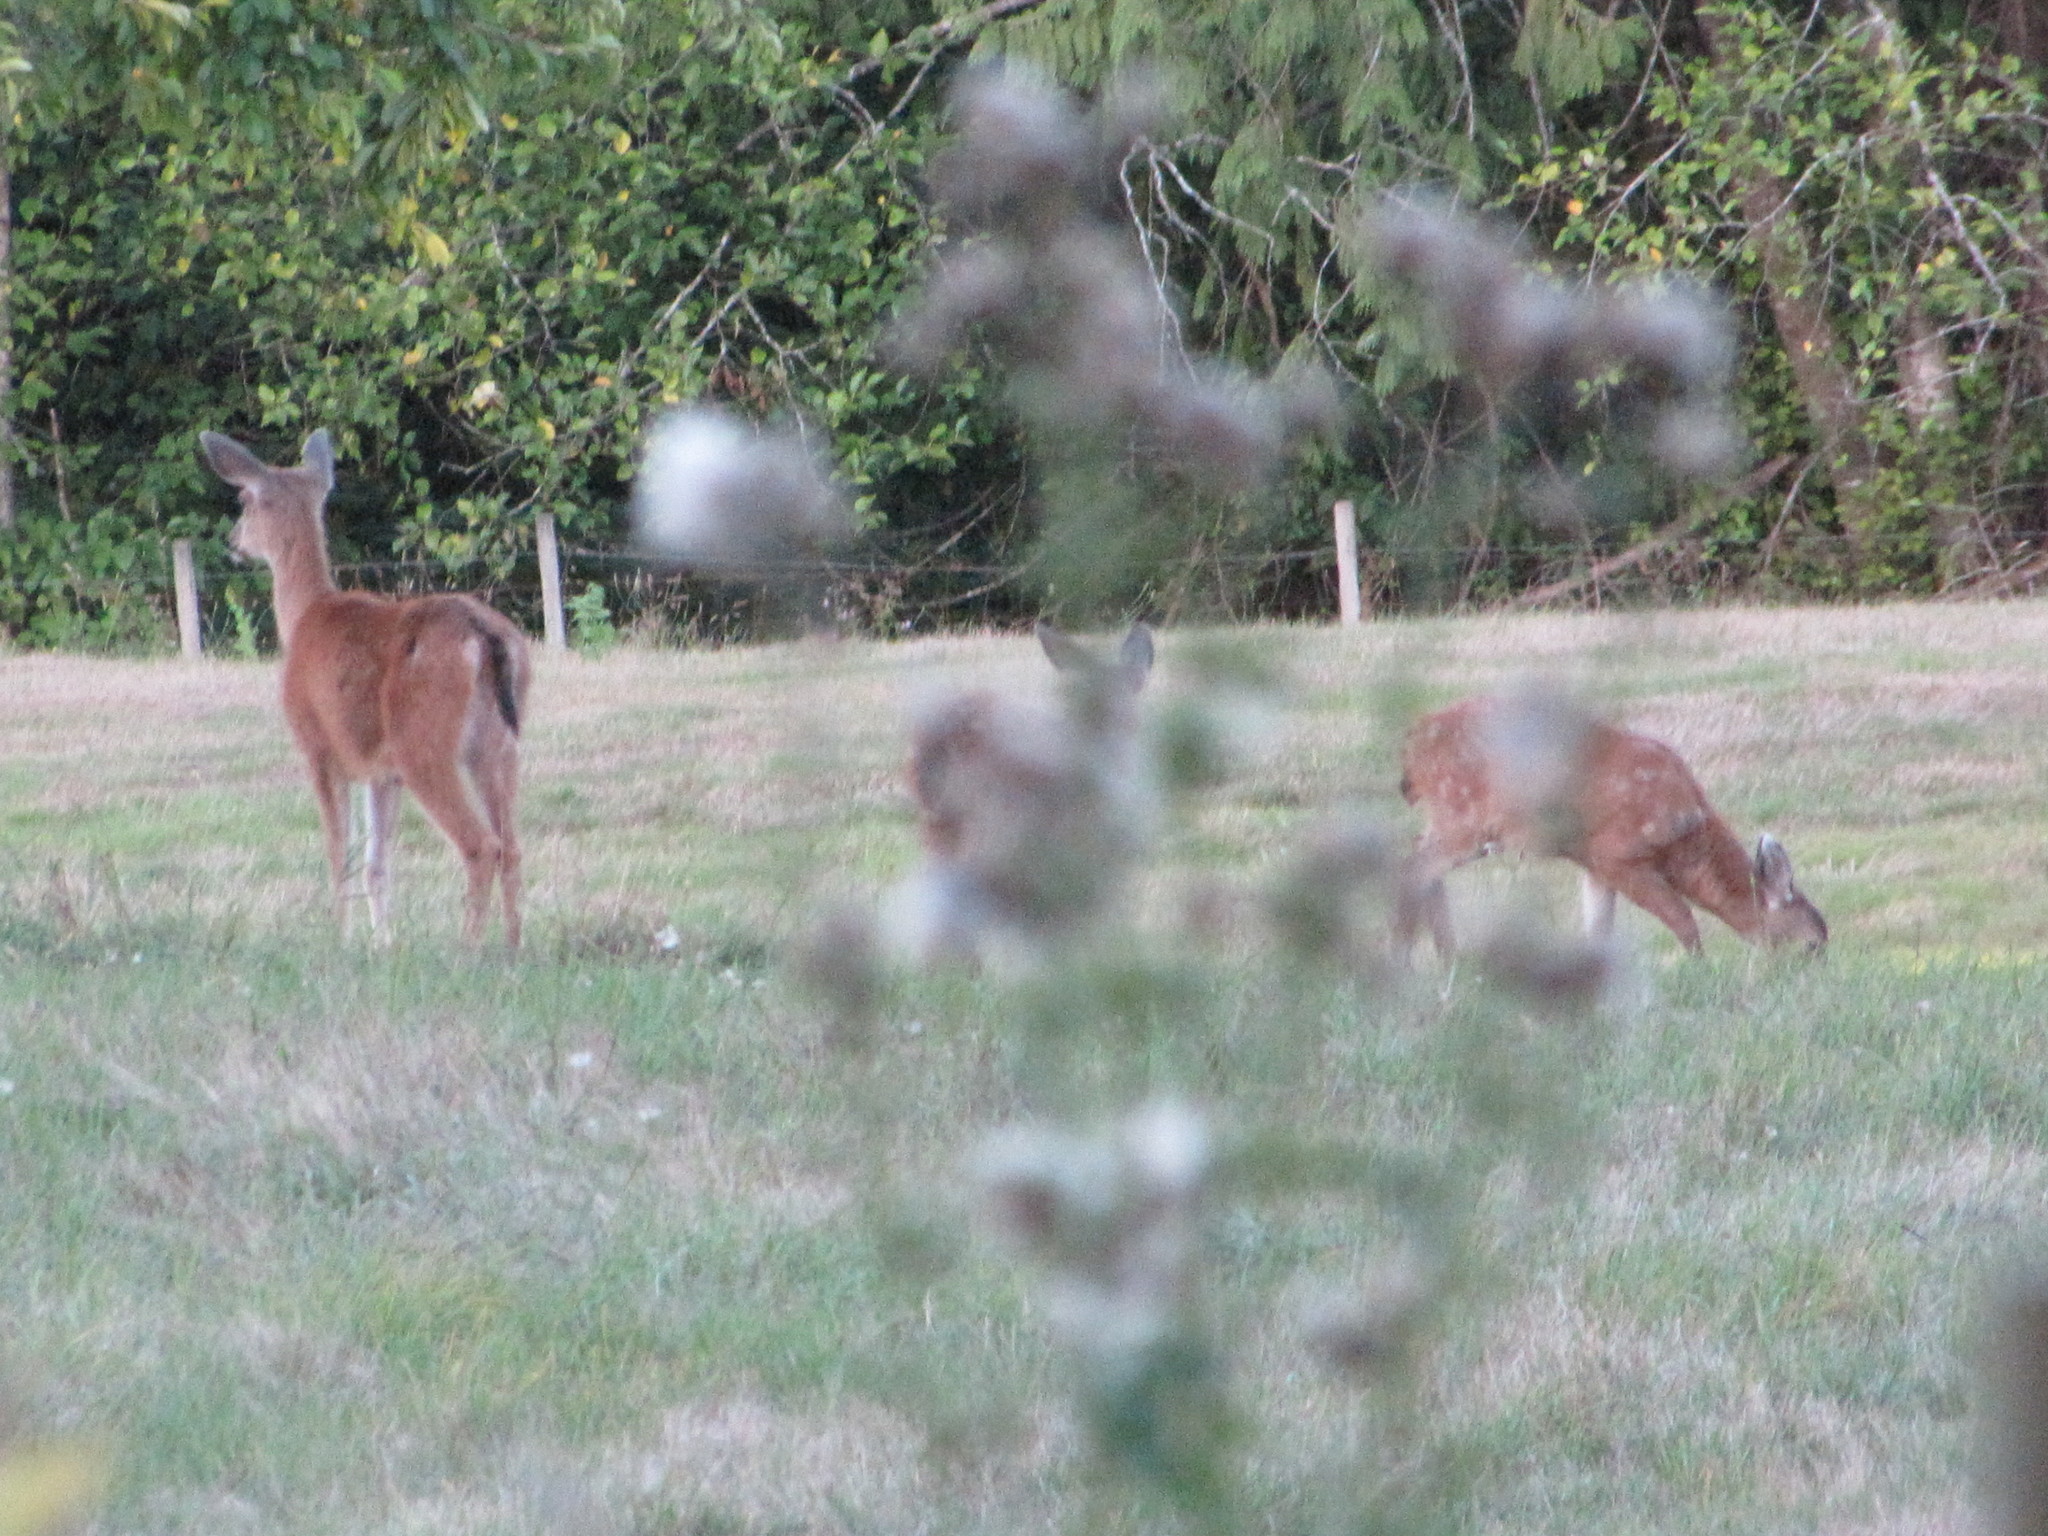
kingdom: Animalia
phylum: Chordata
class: Mammalia
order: Artiodactyla
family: Cervidae
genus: Odocoileus
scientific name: Odocoileus hemionus
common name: Mule deer
